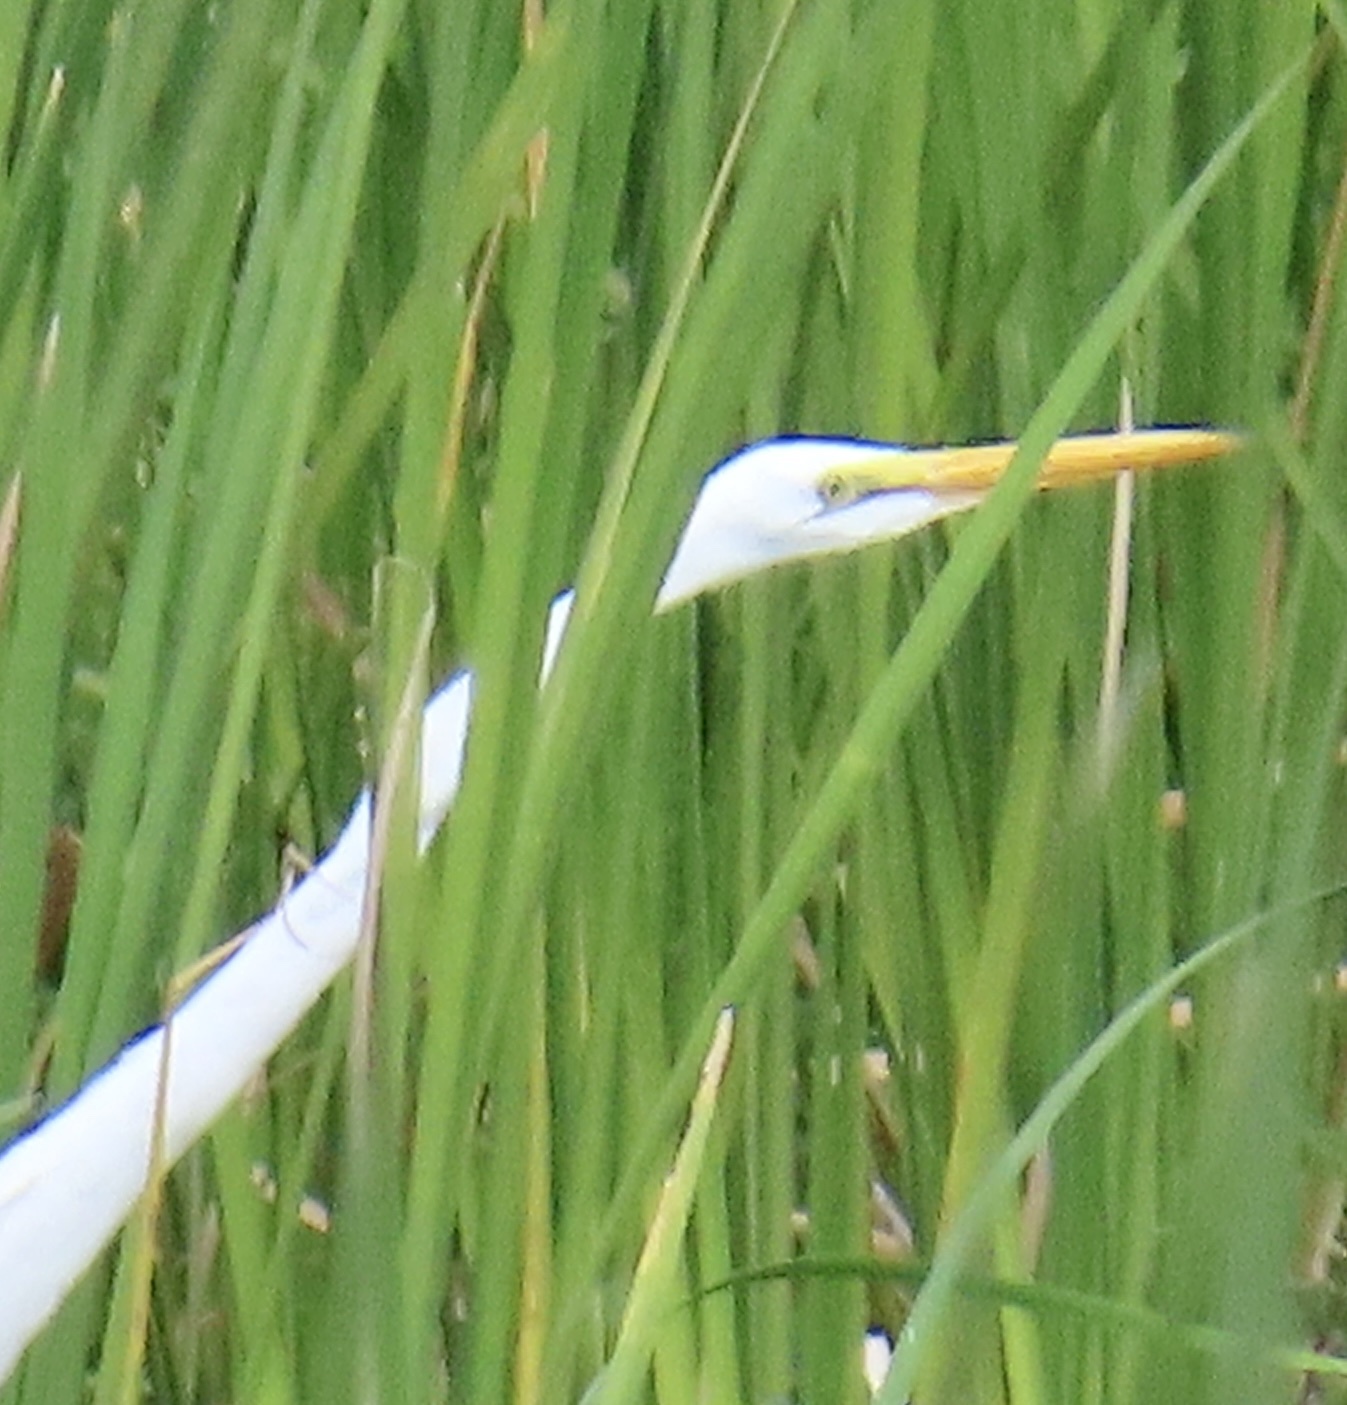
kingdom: Animalia
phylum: Chordata
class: Aves
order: Pelecaniformes
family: Ardeidae
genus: Ardea
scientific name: Ardea alba
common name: Great egret
